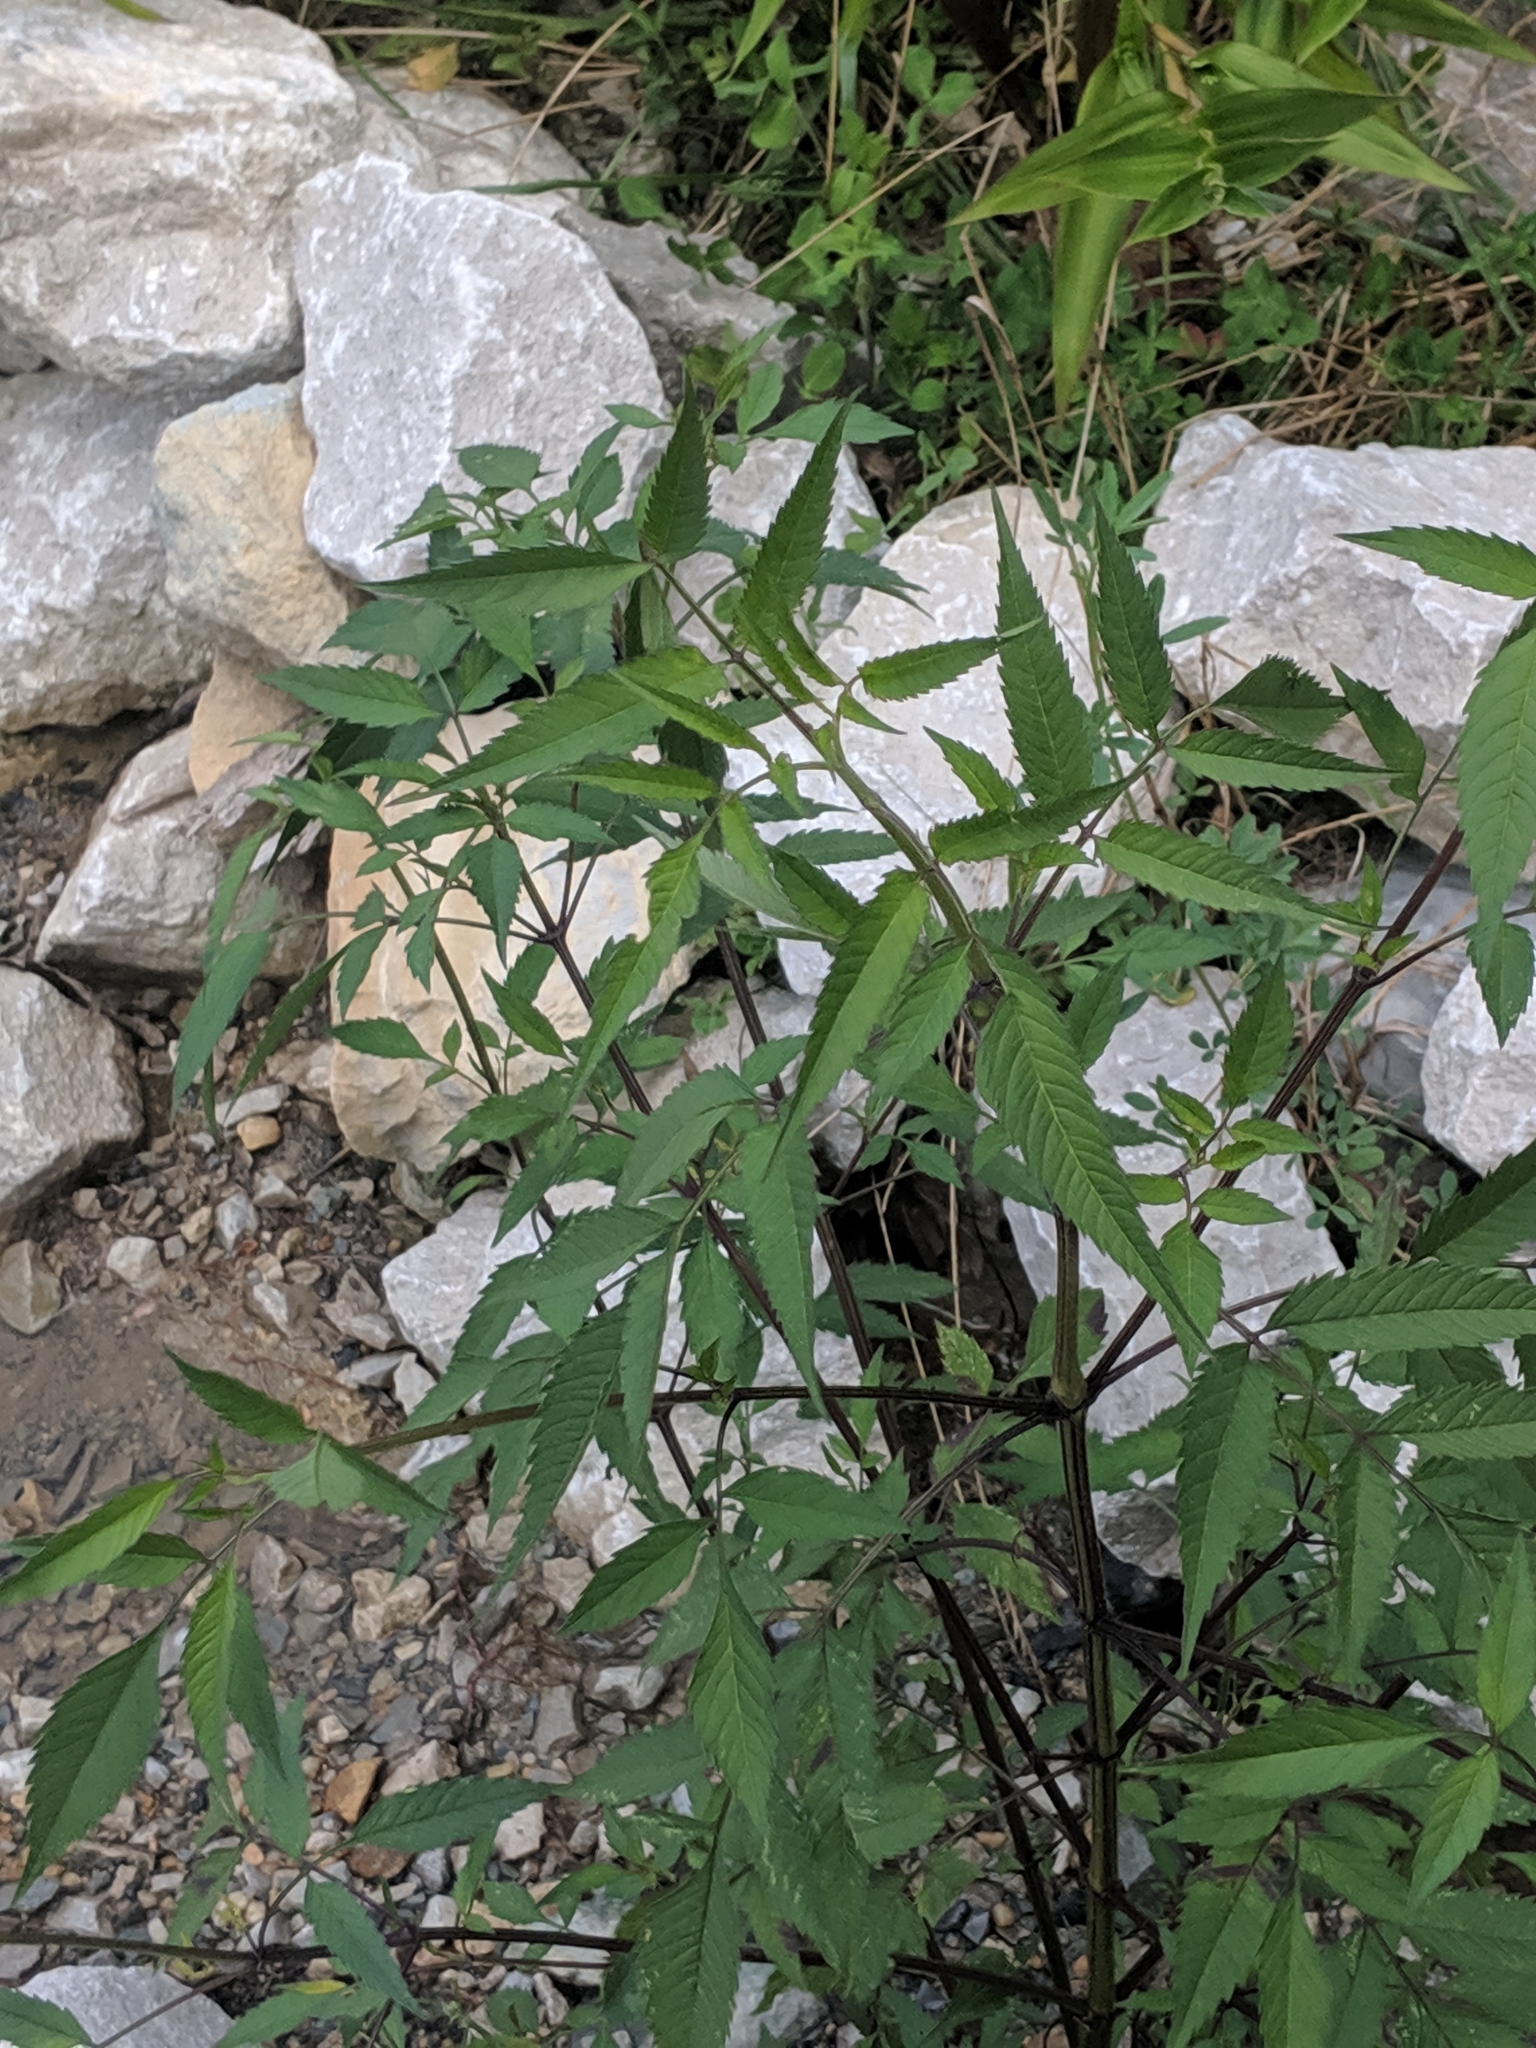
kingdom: Plantae
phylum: Tracheophyta
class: Magnoliopsida
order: Apiales
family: Apiaceae
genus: Cicuta
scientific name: Cicuta maculata
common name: Spotted cowbane
